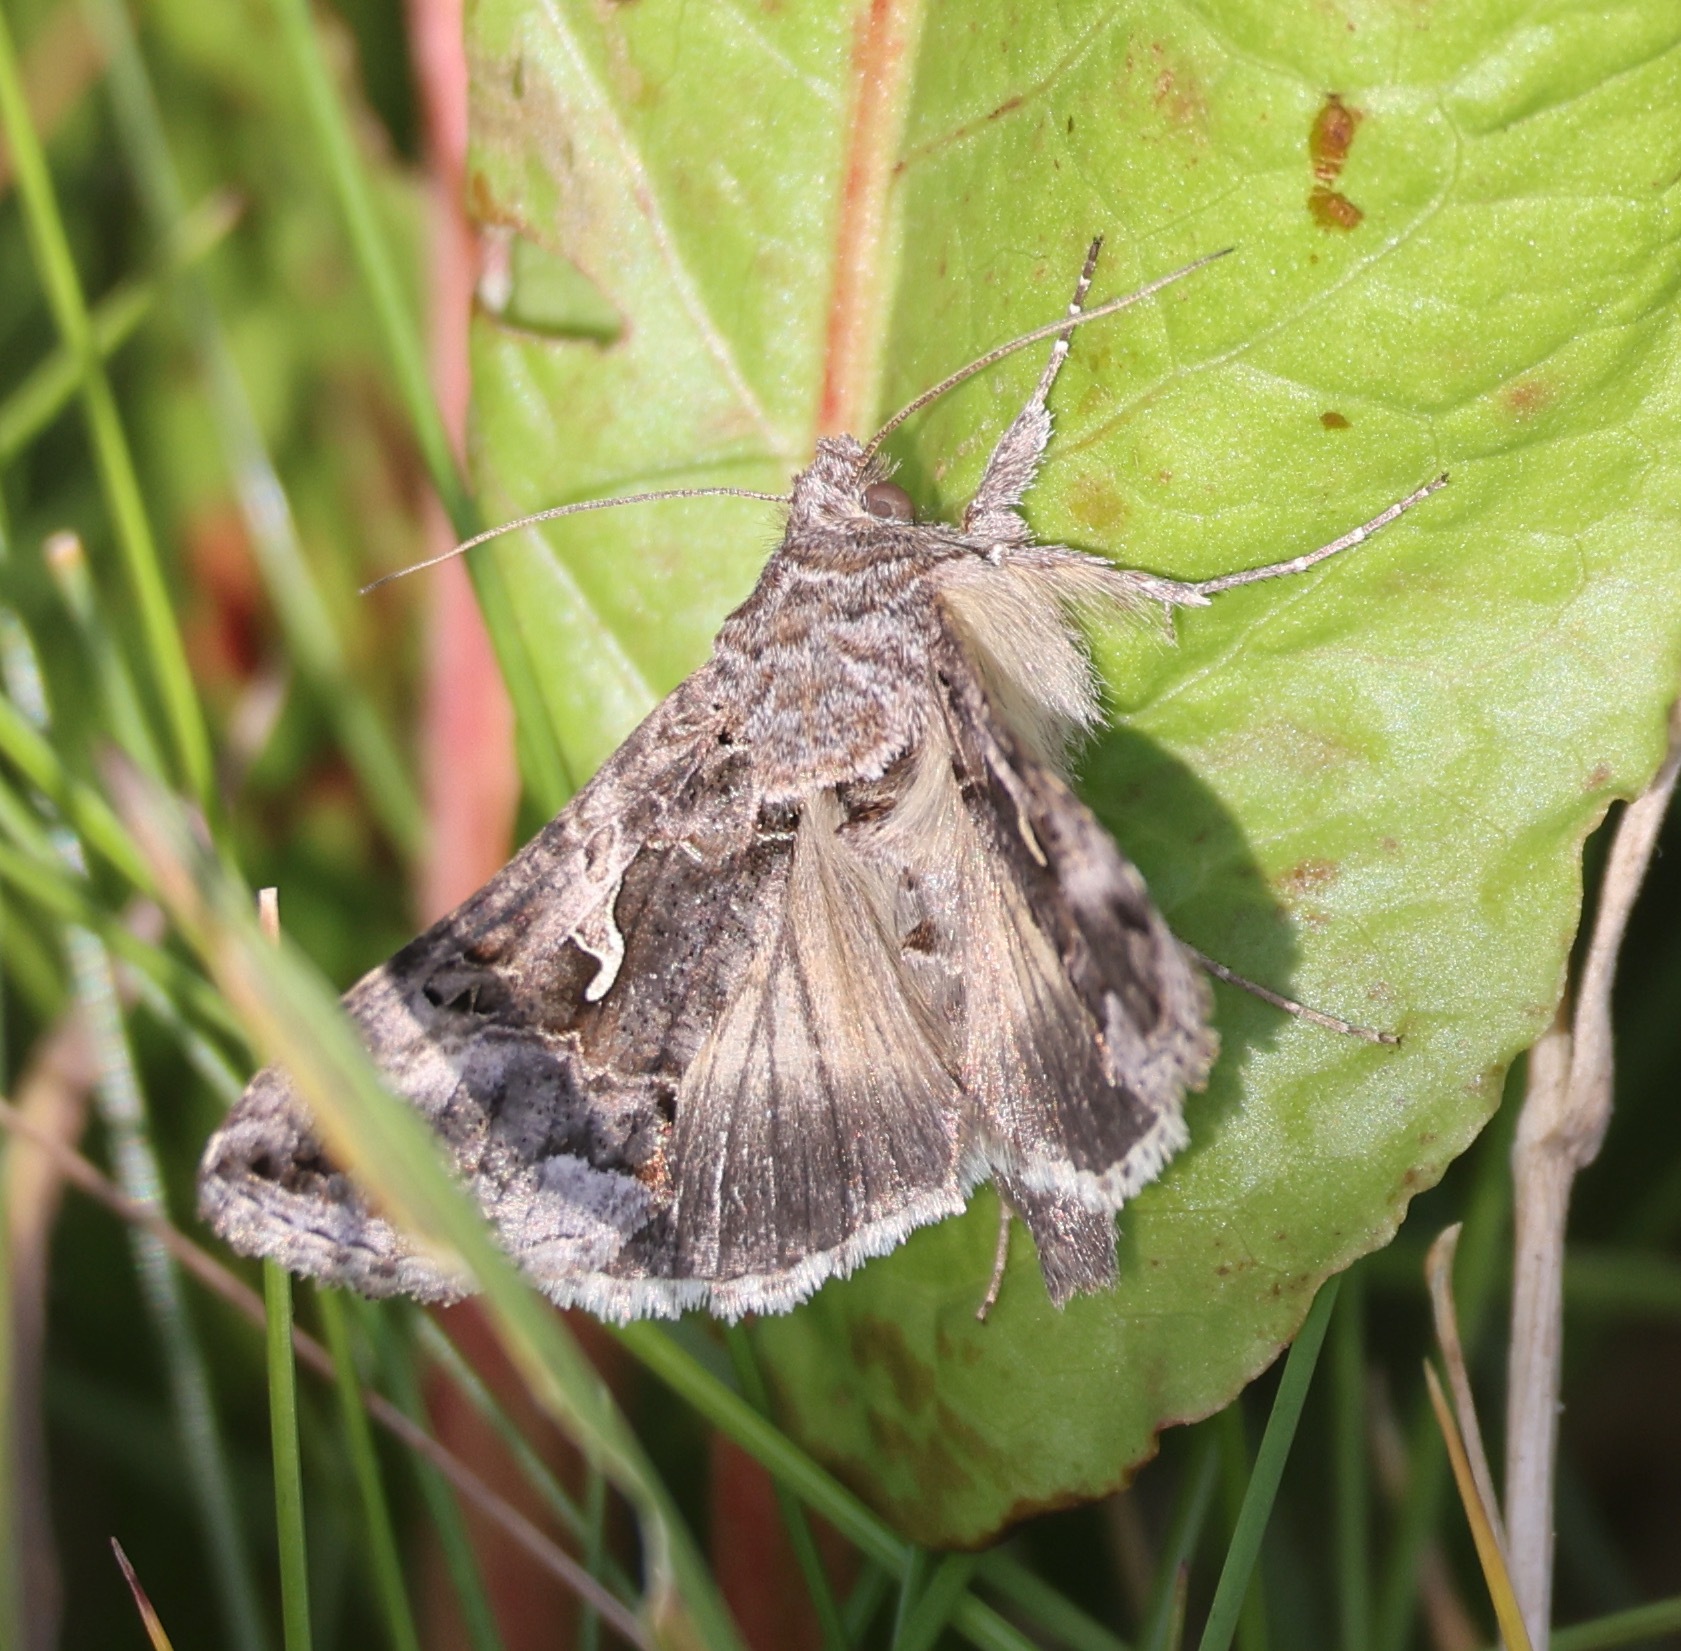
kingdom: Animalia
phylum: Arthropoda
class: Insecta
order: Lepidoptera
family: Noctuidae
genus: Autographa
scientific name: Autographa gamma
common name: Silver y
